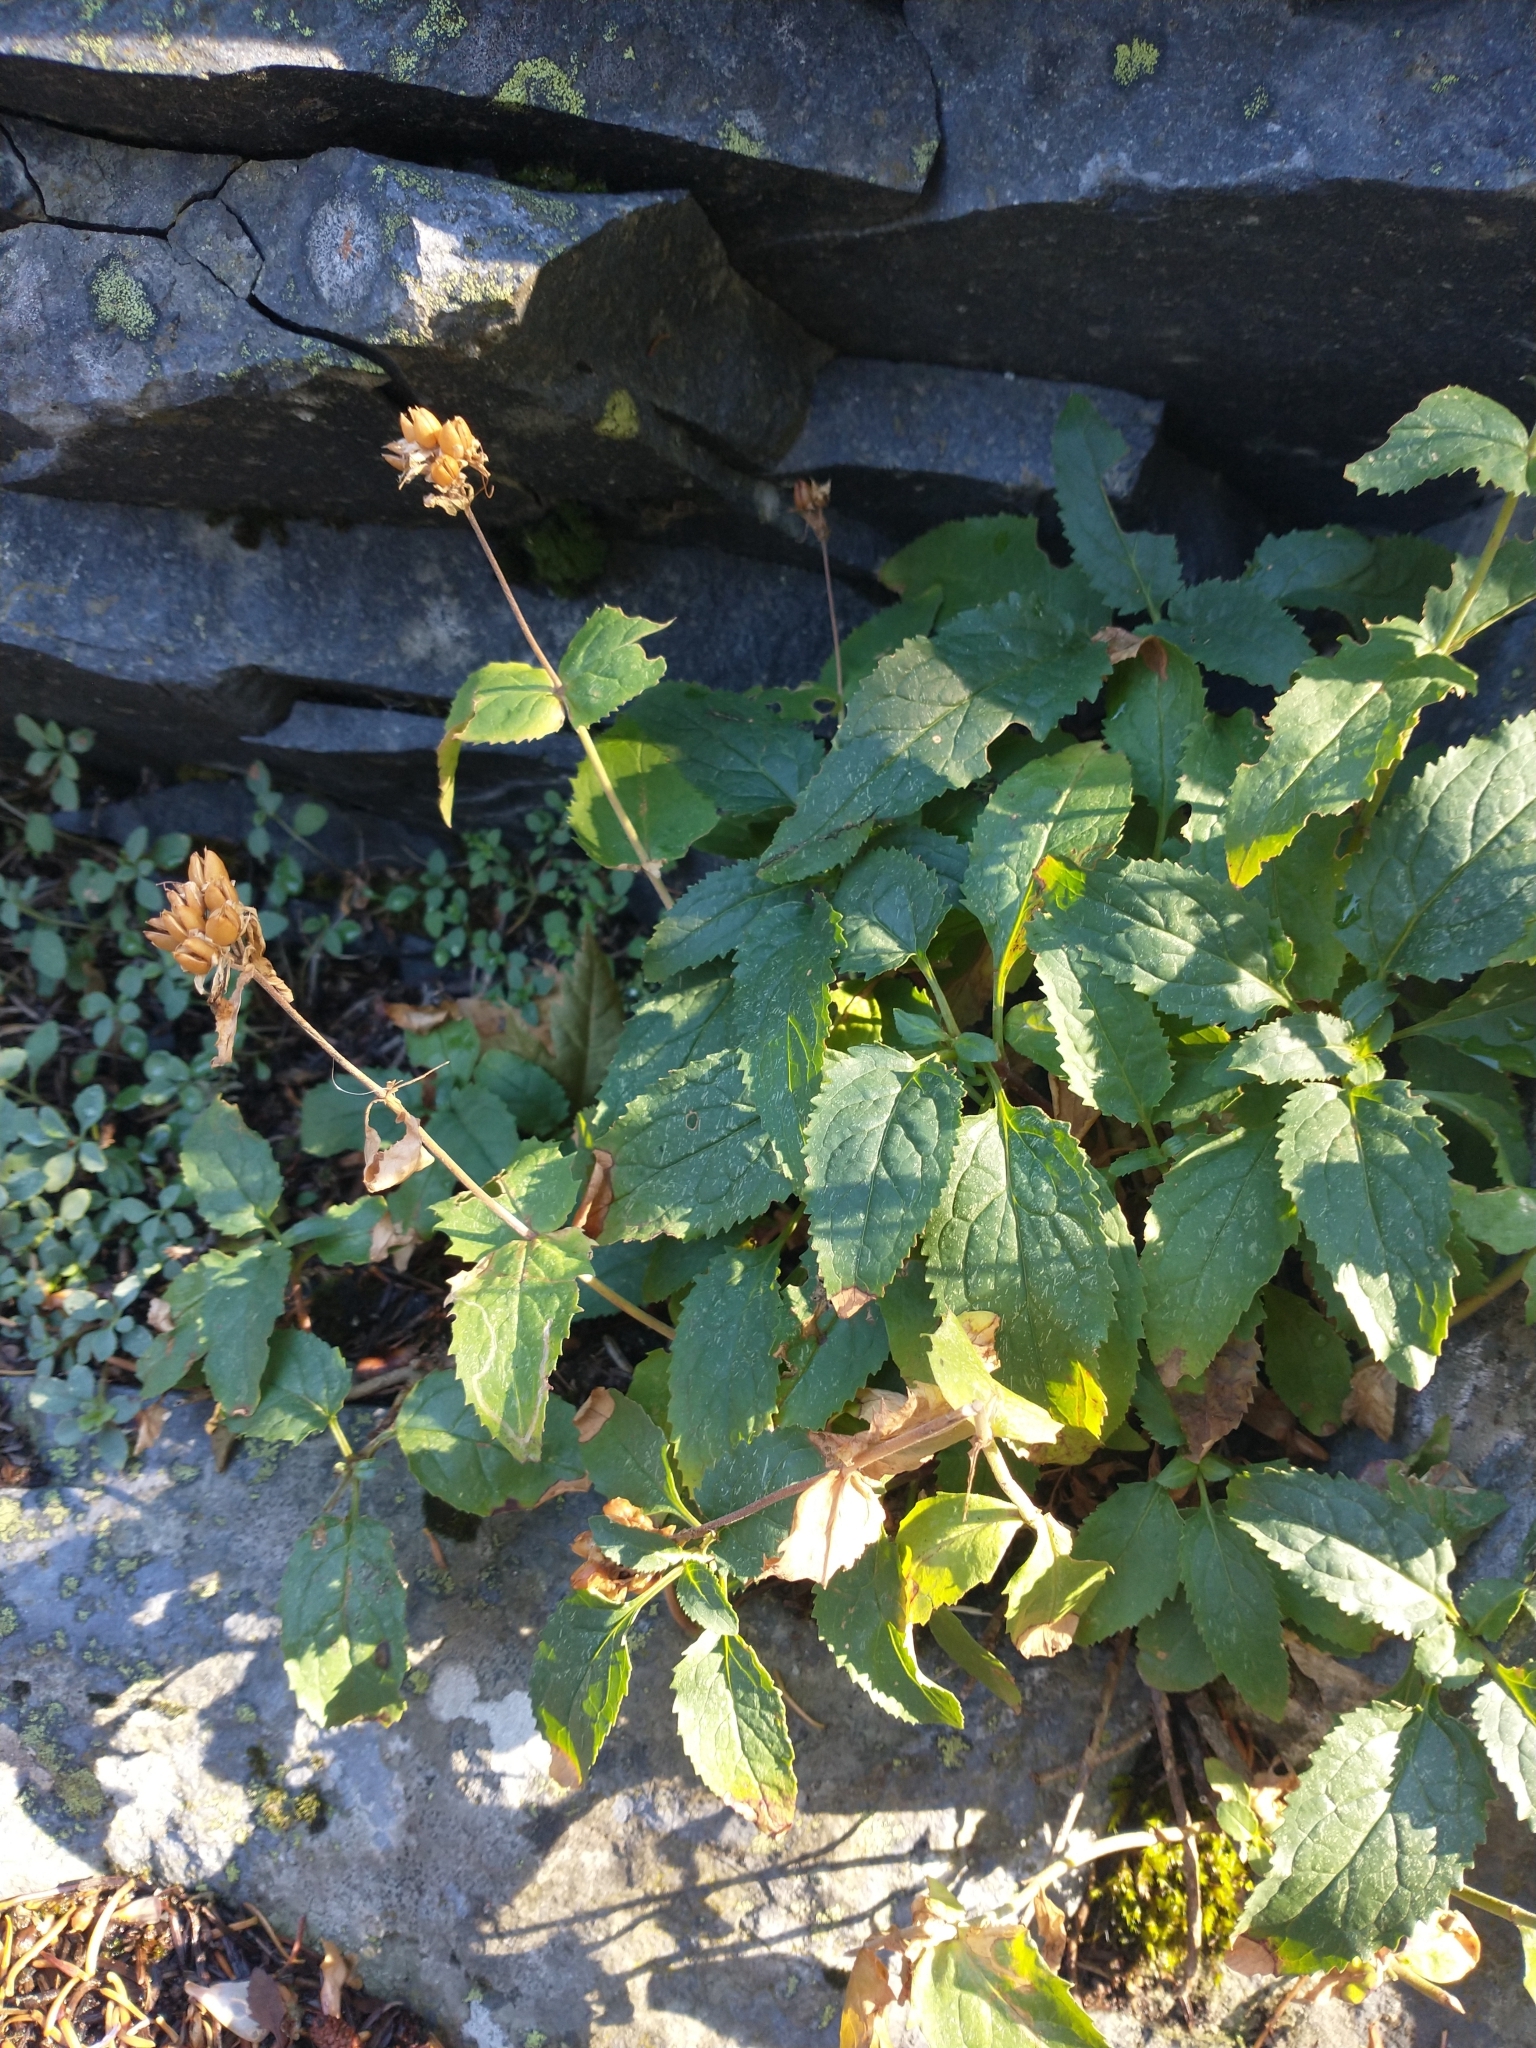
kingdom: Plantae
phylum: Tracheophyta
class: Magnoliopsida
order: Lamiales
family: Plantaginaceae
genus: Penstemon
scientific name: Penstemon serrulatus
